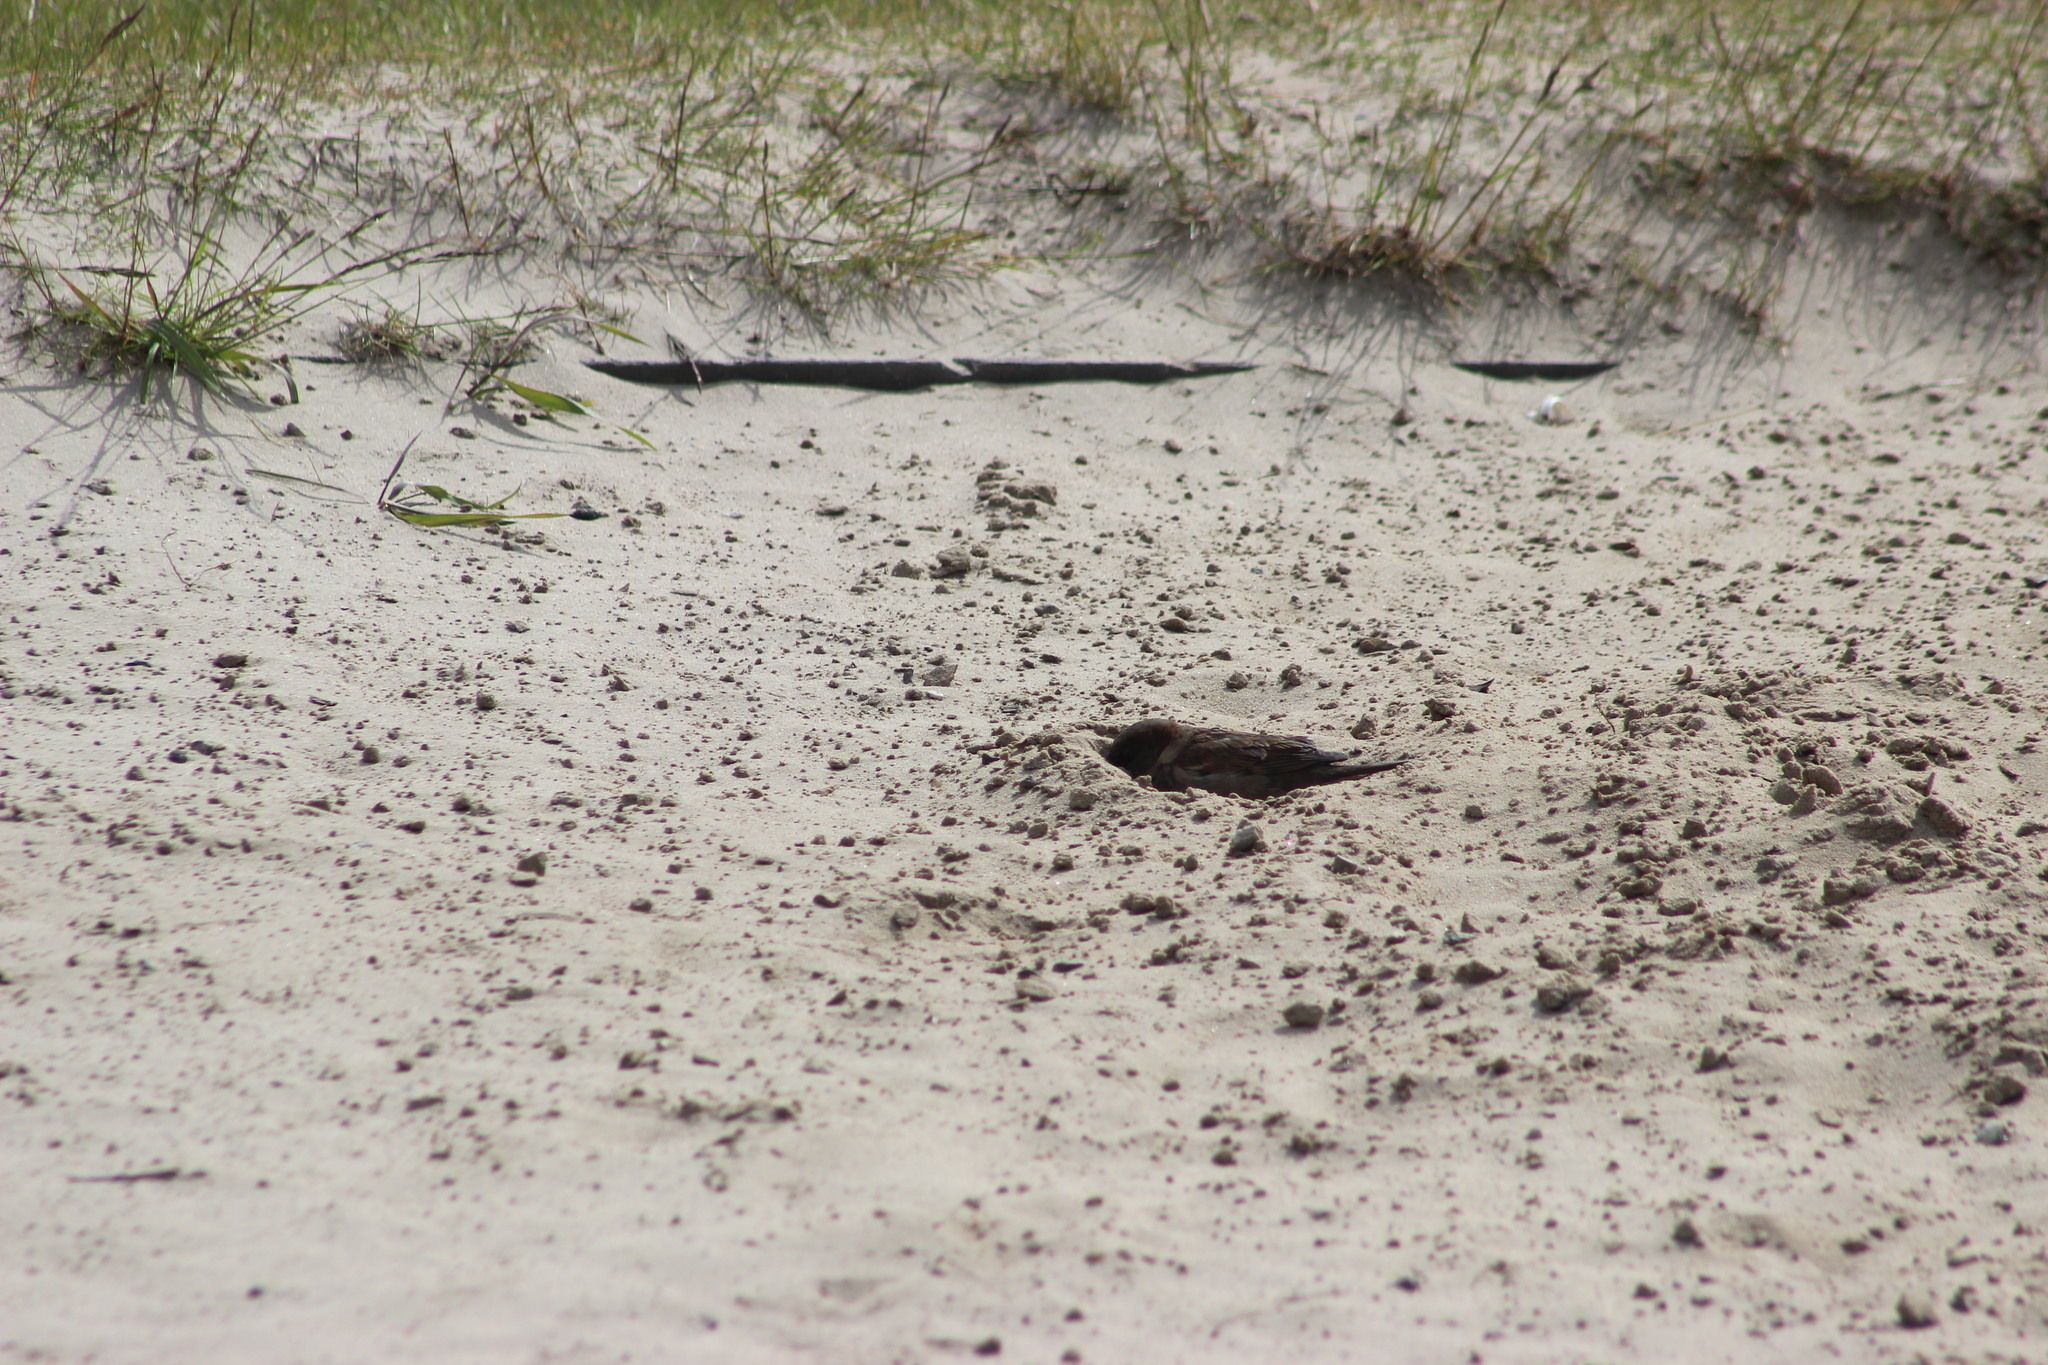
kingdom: Animalia
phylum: Chordata
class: Aves
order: Passeriformes
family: Passeridae
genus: Passer
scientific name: Passer domesticus
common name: House sparrow
